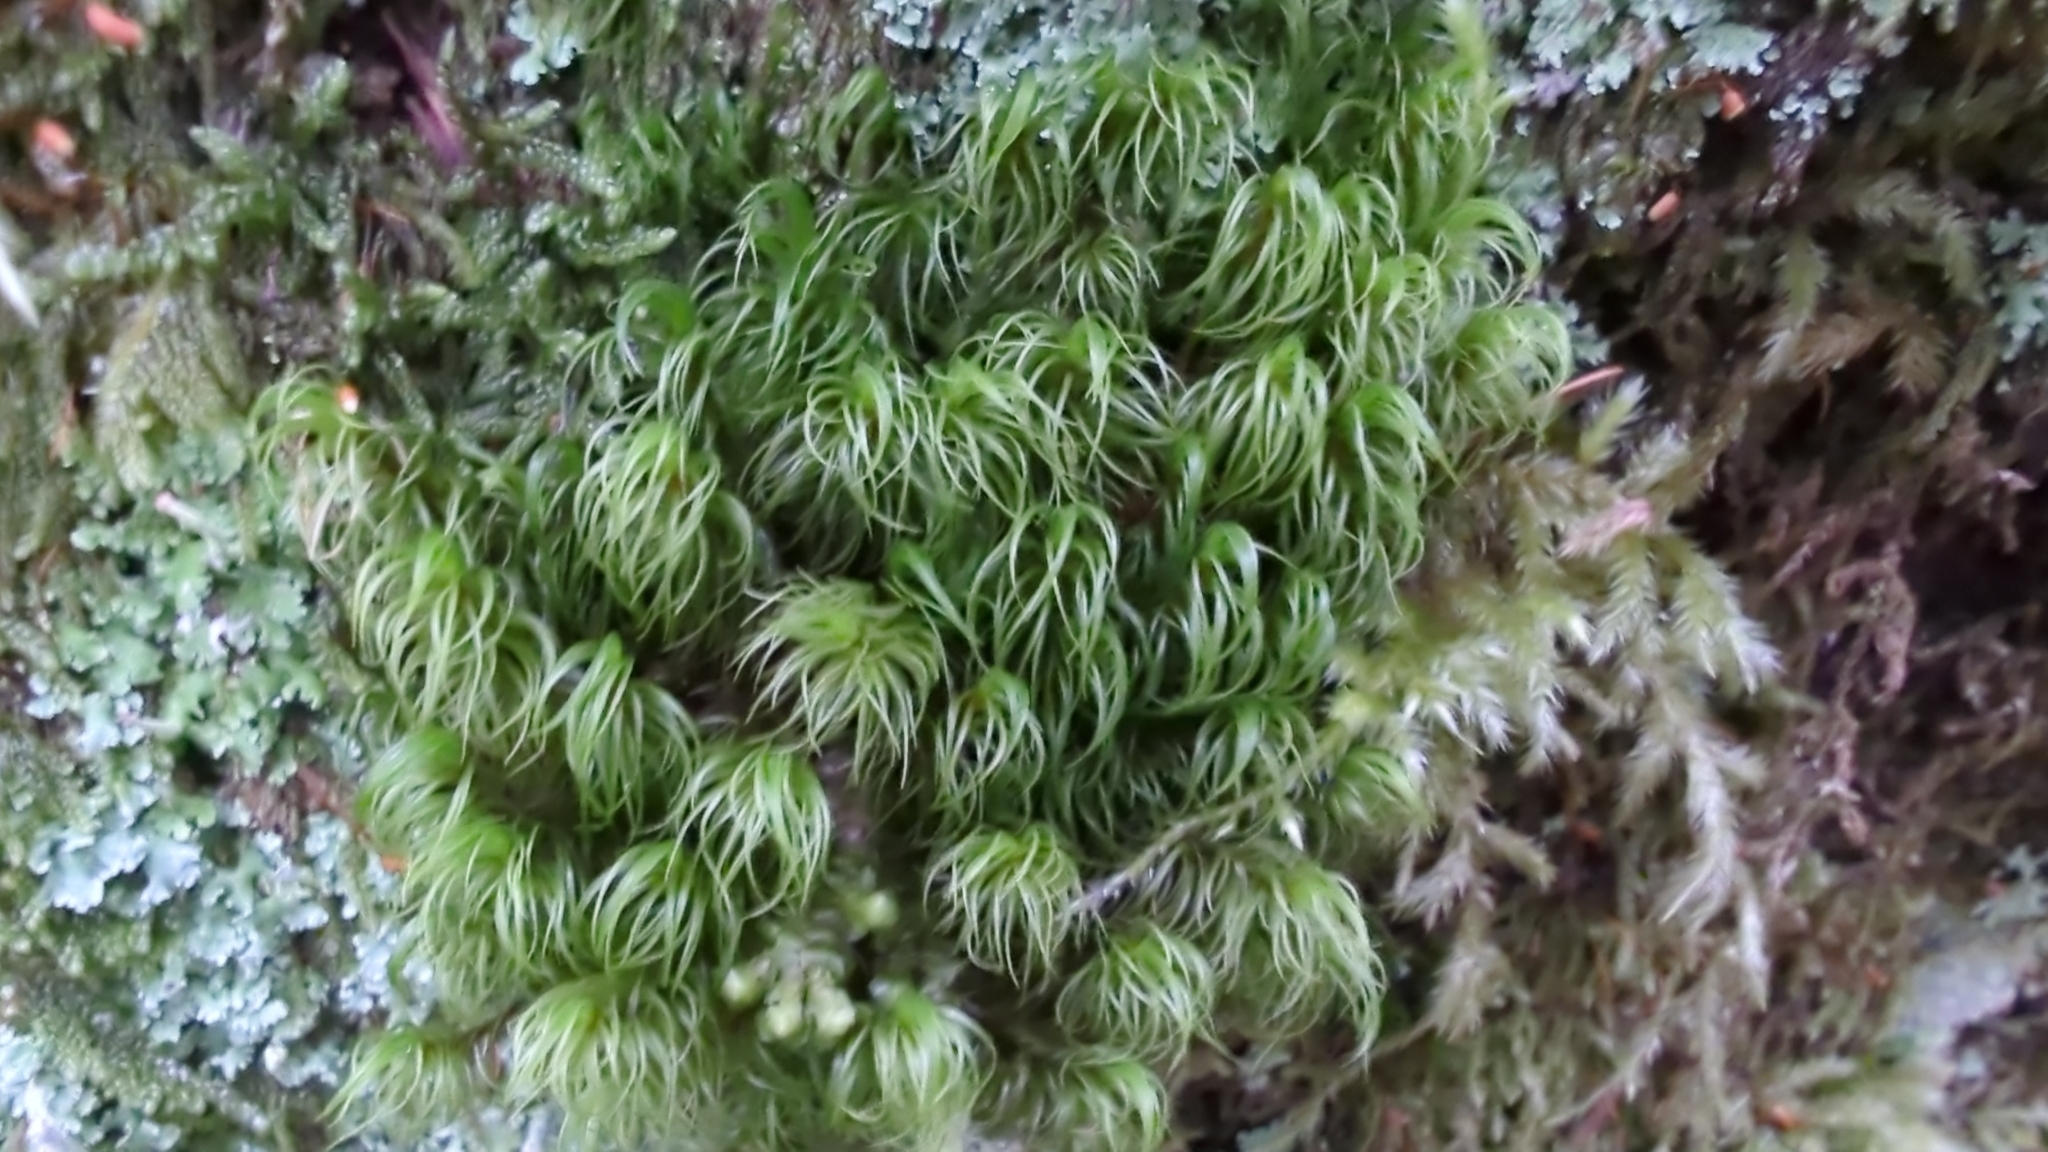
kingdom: Plantae
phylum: Bryophyta
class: Bryopsida
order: Dicranales
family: Dicranaceae
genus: Dicranum
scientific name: Dicranum fuscescens
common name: Curly heron's-bill moss
